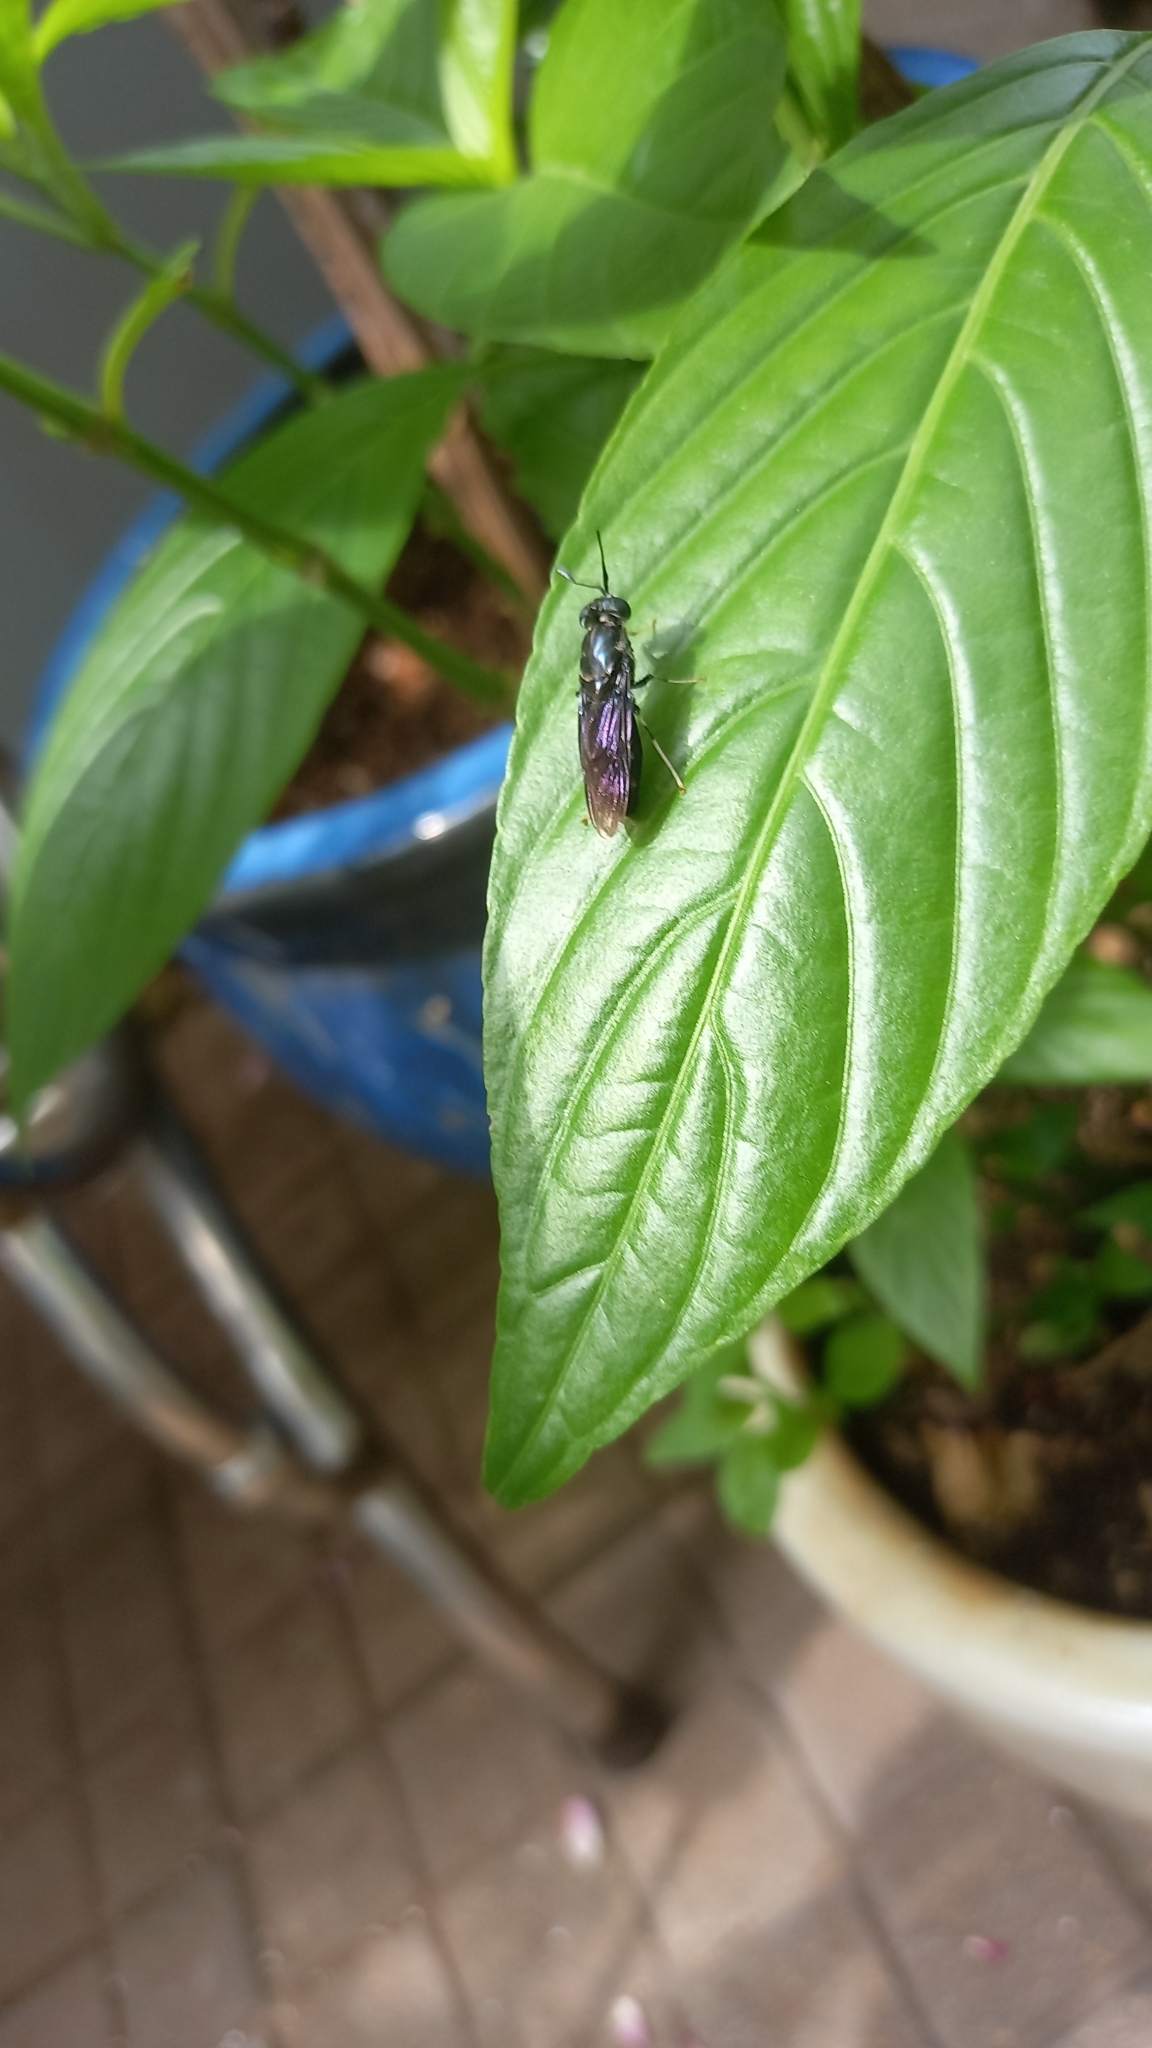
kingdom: Animalia
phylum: Arthropoda
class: Insecta
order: Diptera
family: Stratiomyidae
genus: Hermetia
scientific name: Hermetia illucens
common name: Black soldier fly
